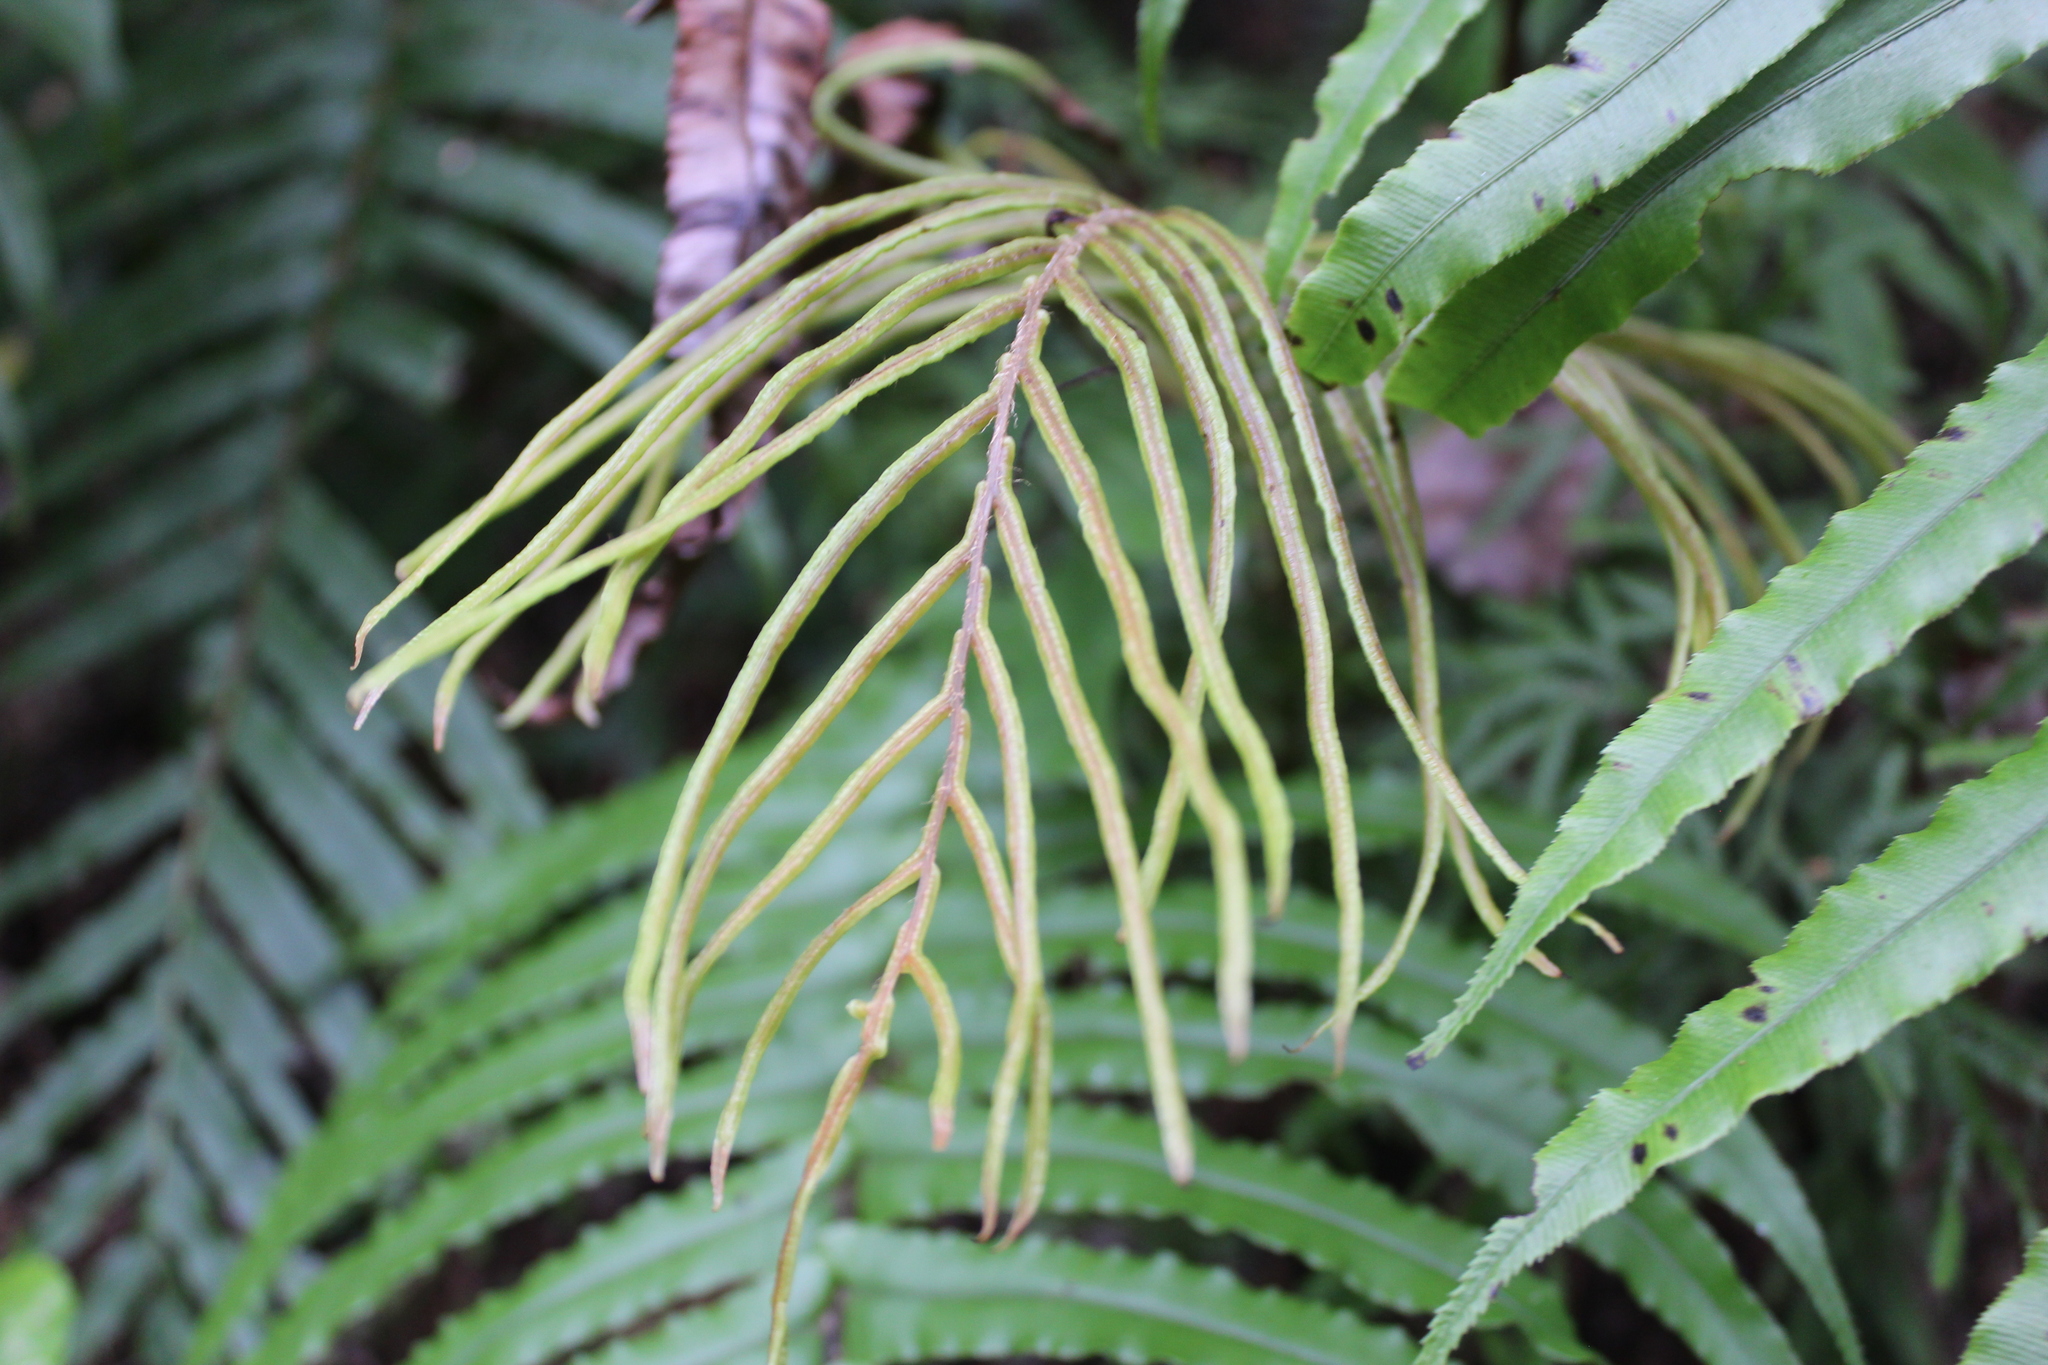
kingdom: Plantae
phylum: Tracheophyta
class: Polypodiopsida
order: Polypodiales
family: Blechnaceae
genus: Parablechnum
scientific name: Parablechnum novae-zelandiae
